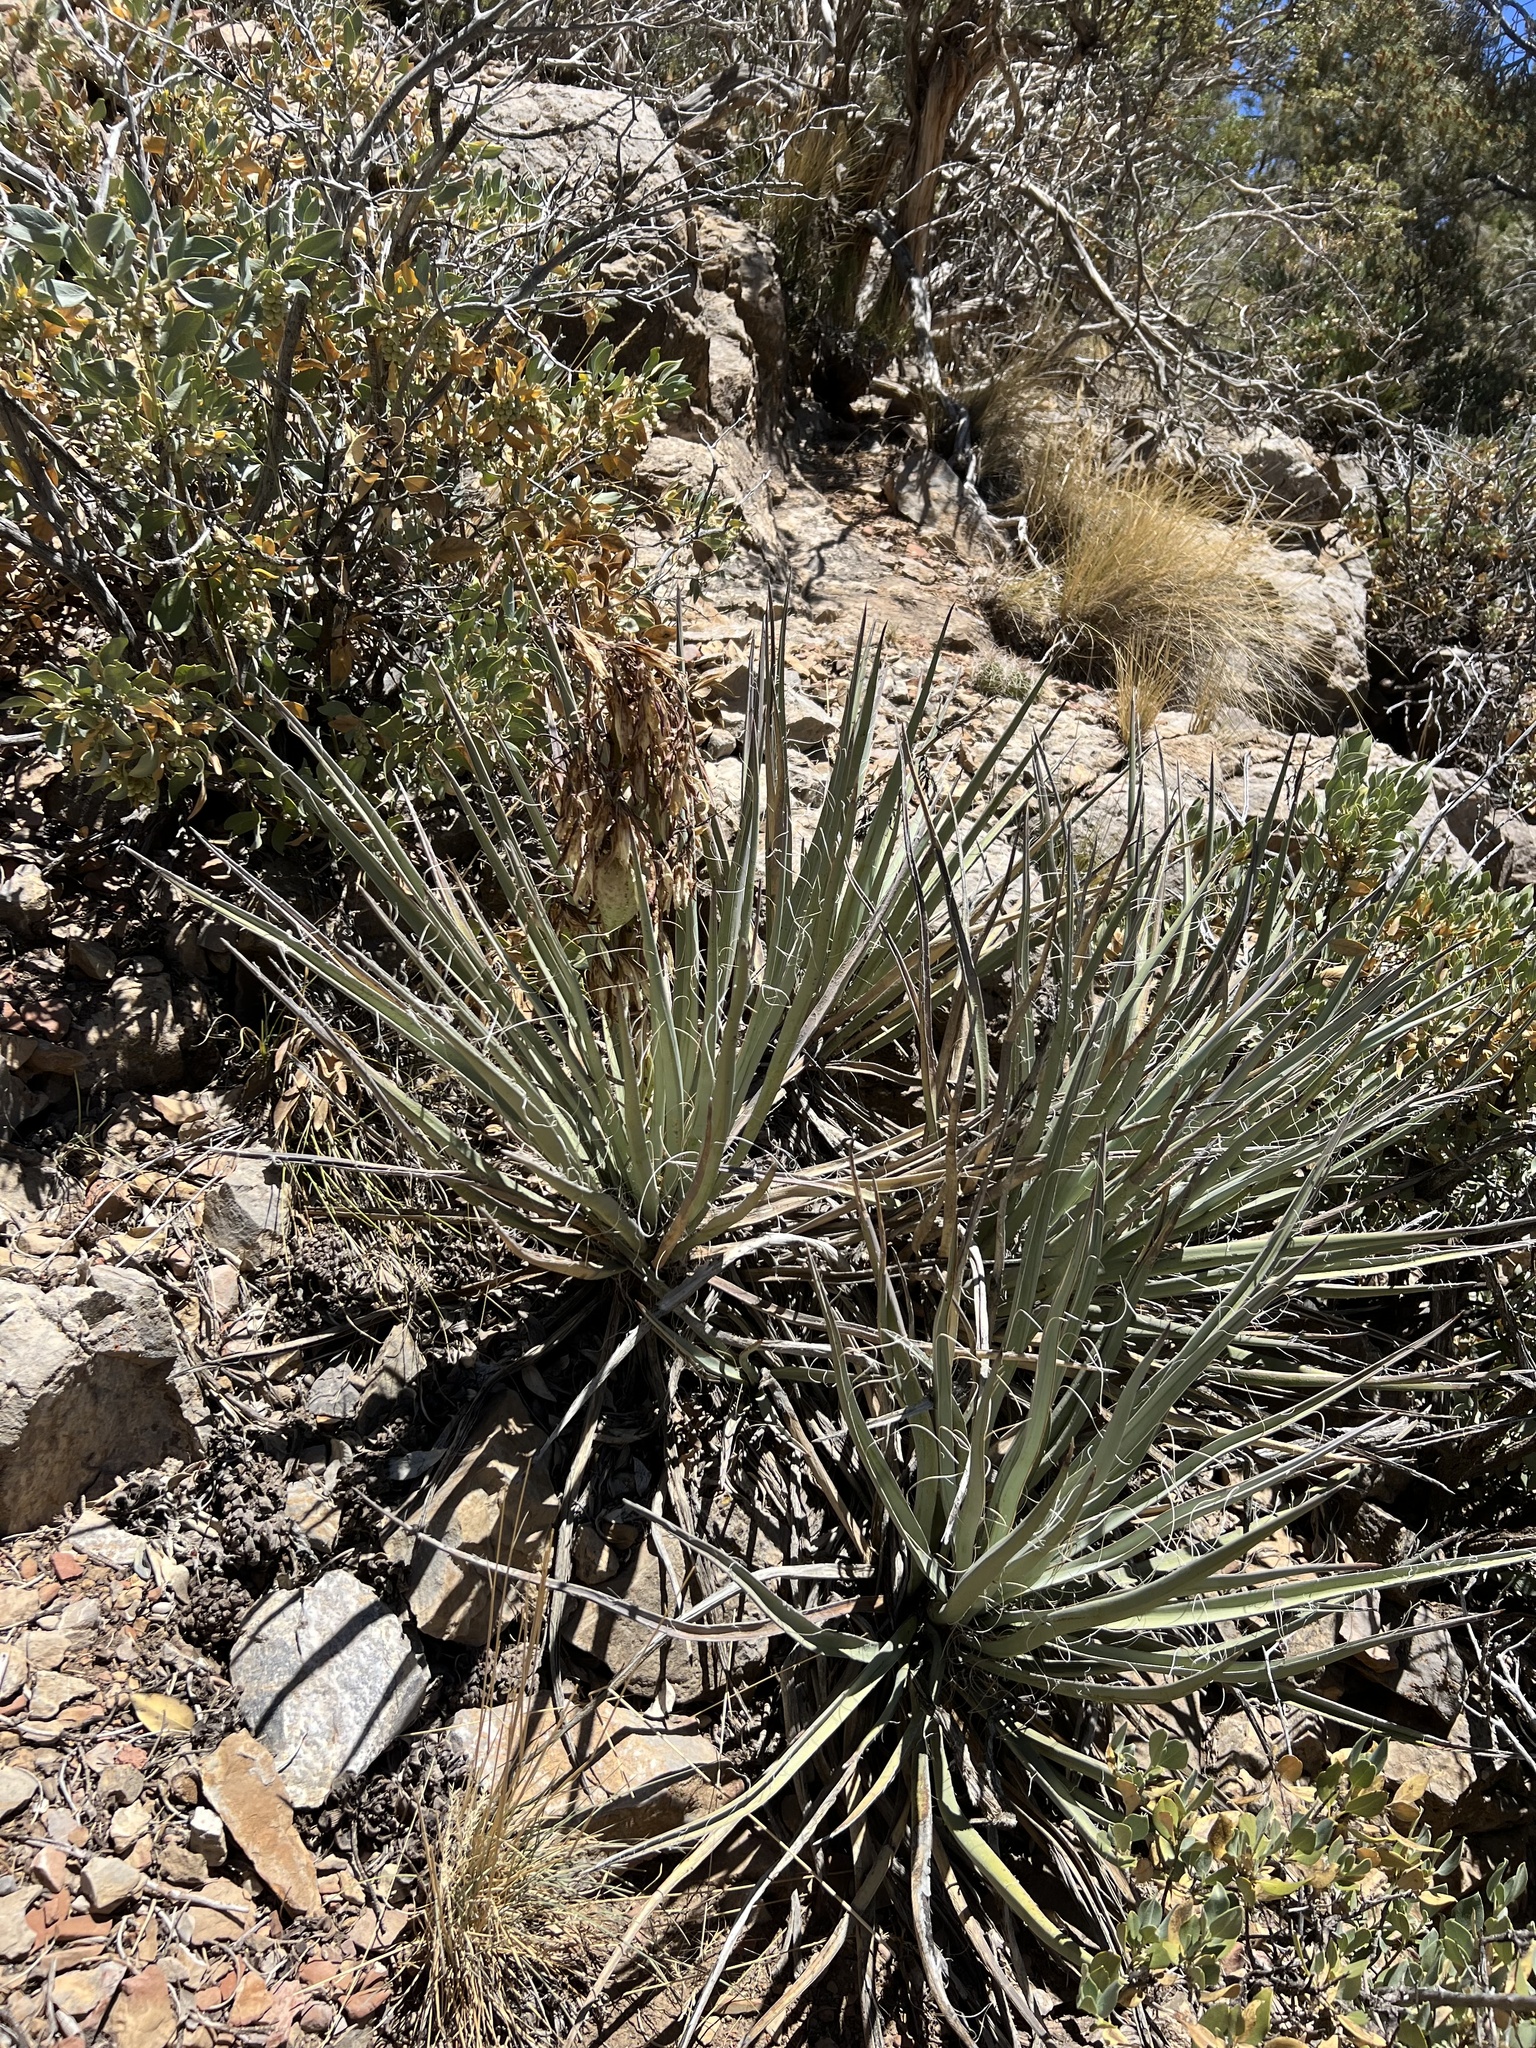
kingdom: Plantae
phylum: Tracheophyta
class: Liliopsida
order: Asparagales
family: Asparagaceae
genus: Yucca
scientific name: Yucca baccata
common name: Banana yucca
